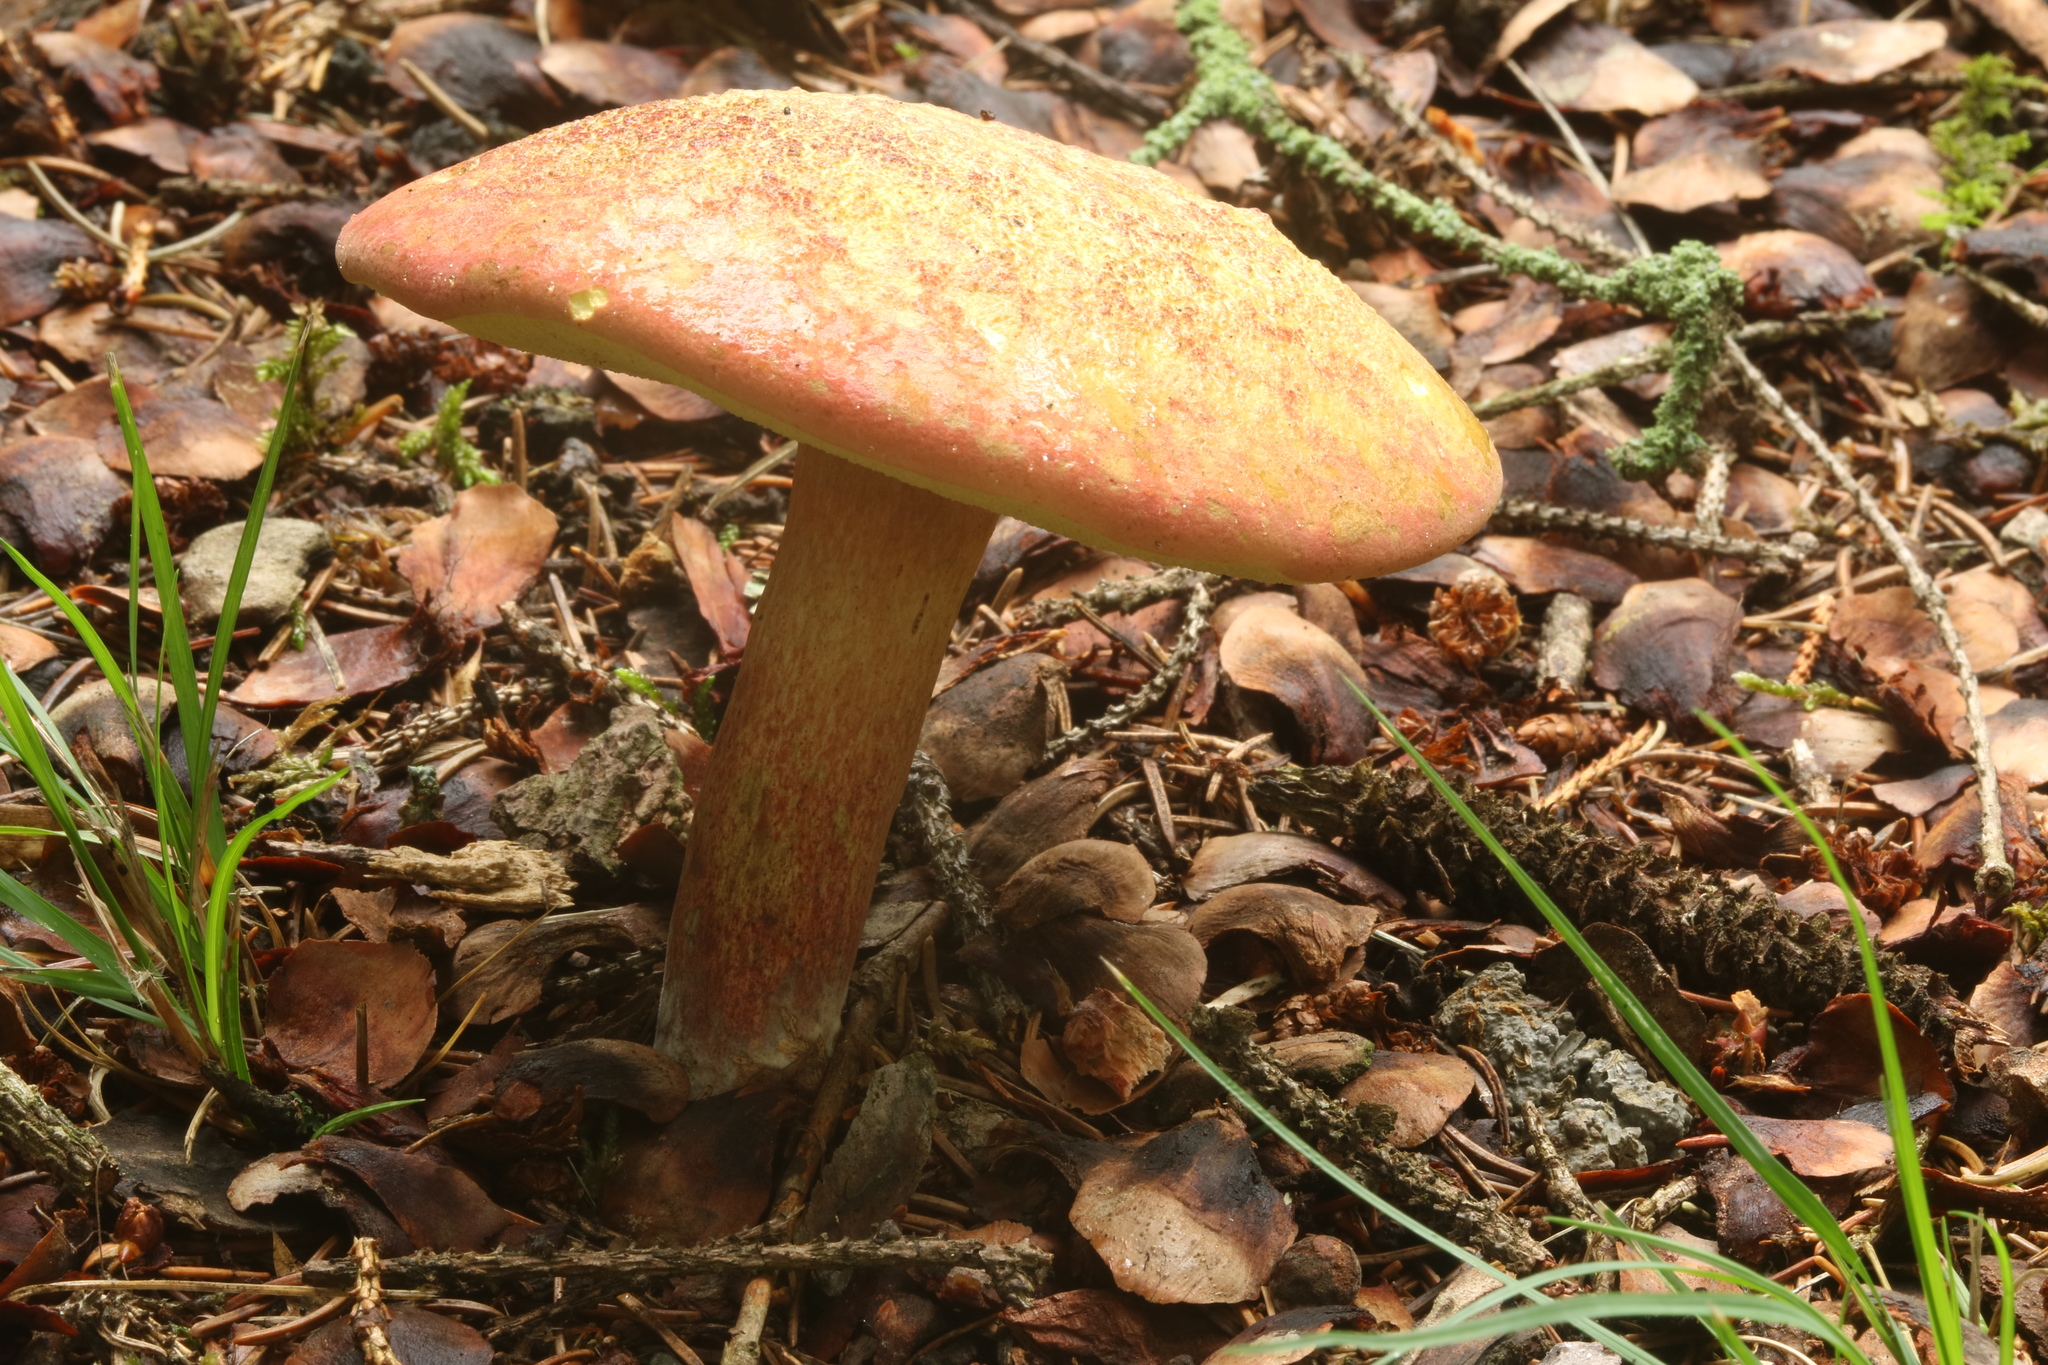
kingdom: Fungi
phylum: Basidiomycota
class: Agaricomycetes
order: Boletales
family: Boletaceae
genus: Lanmaoa
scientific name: Lanmaoa pallidorosea
